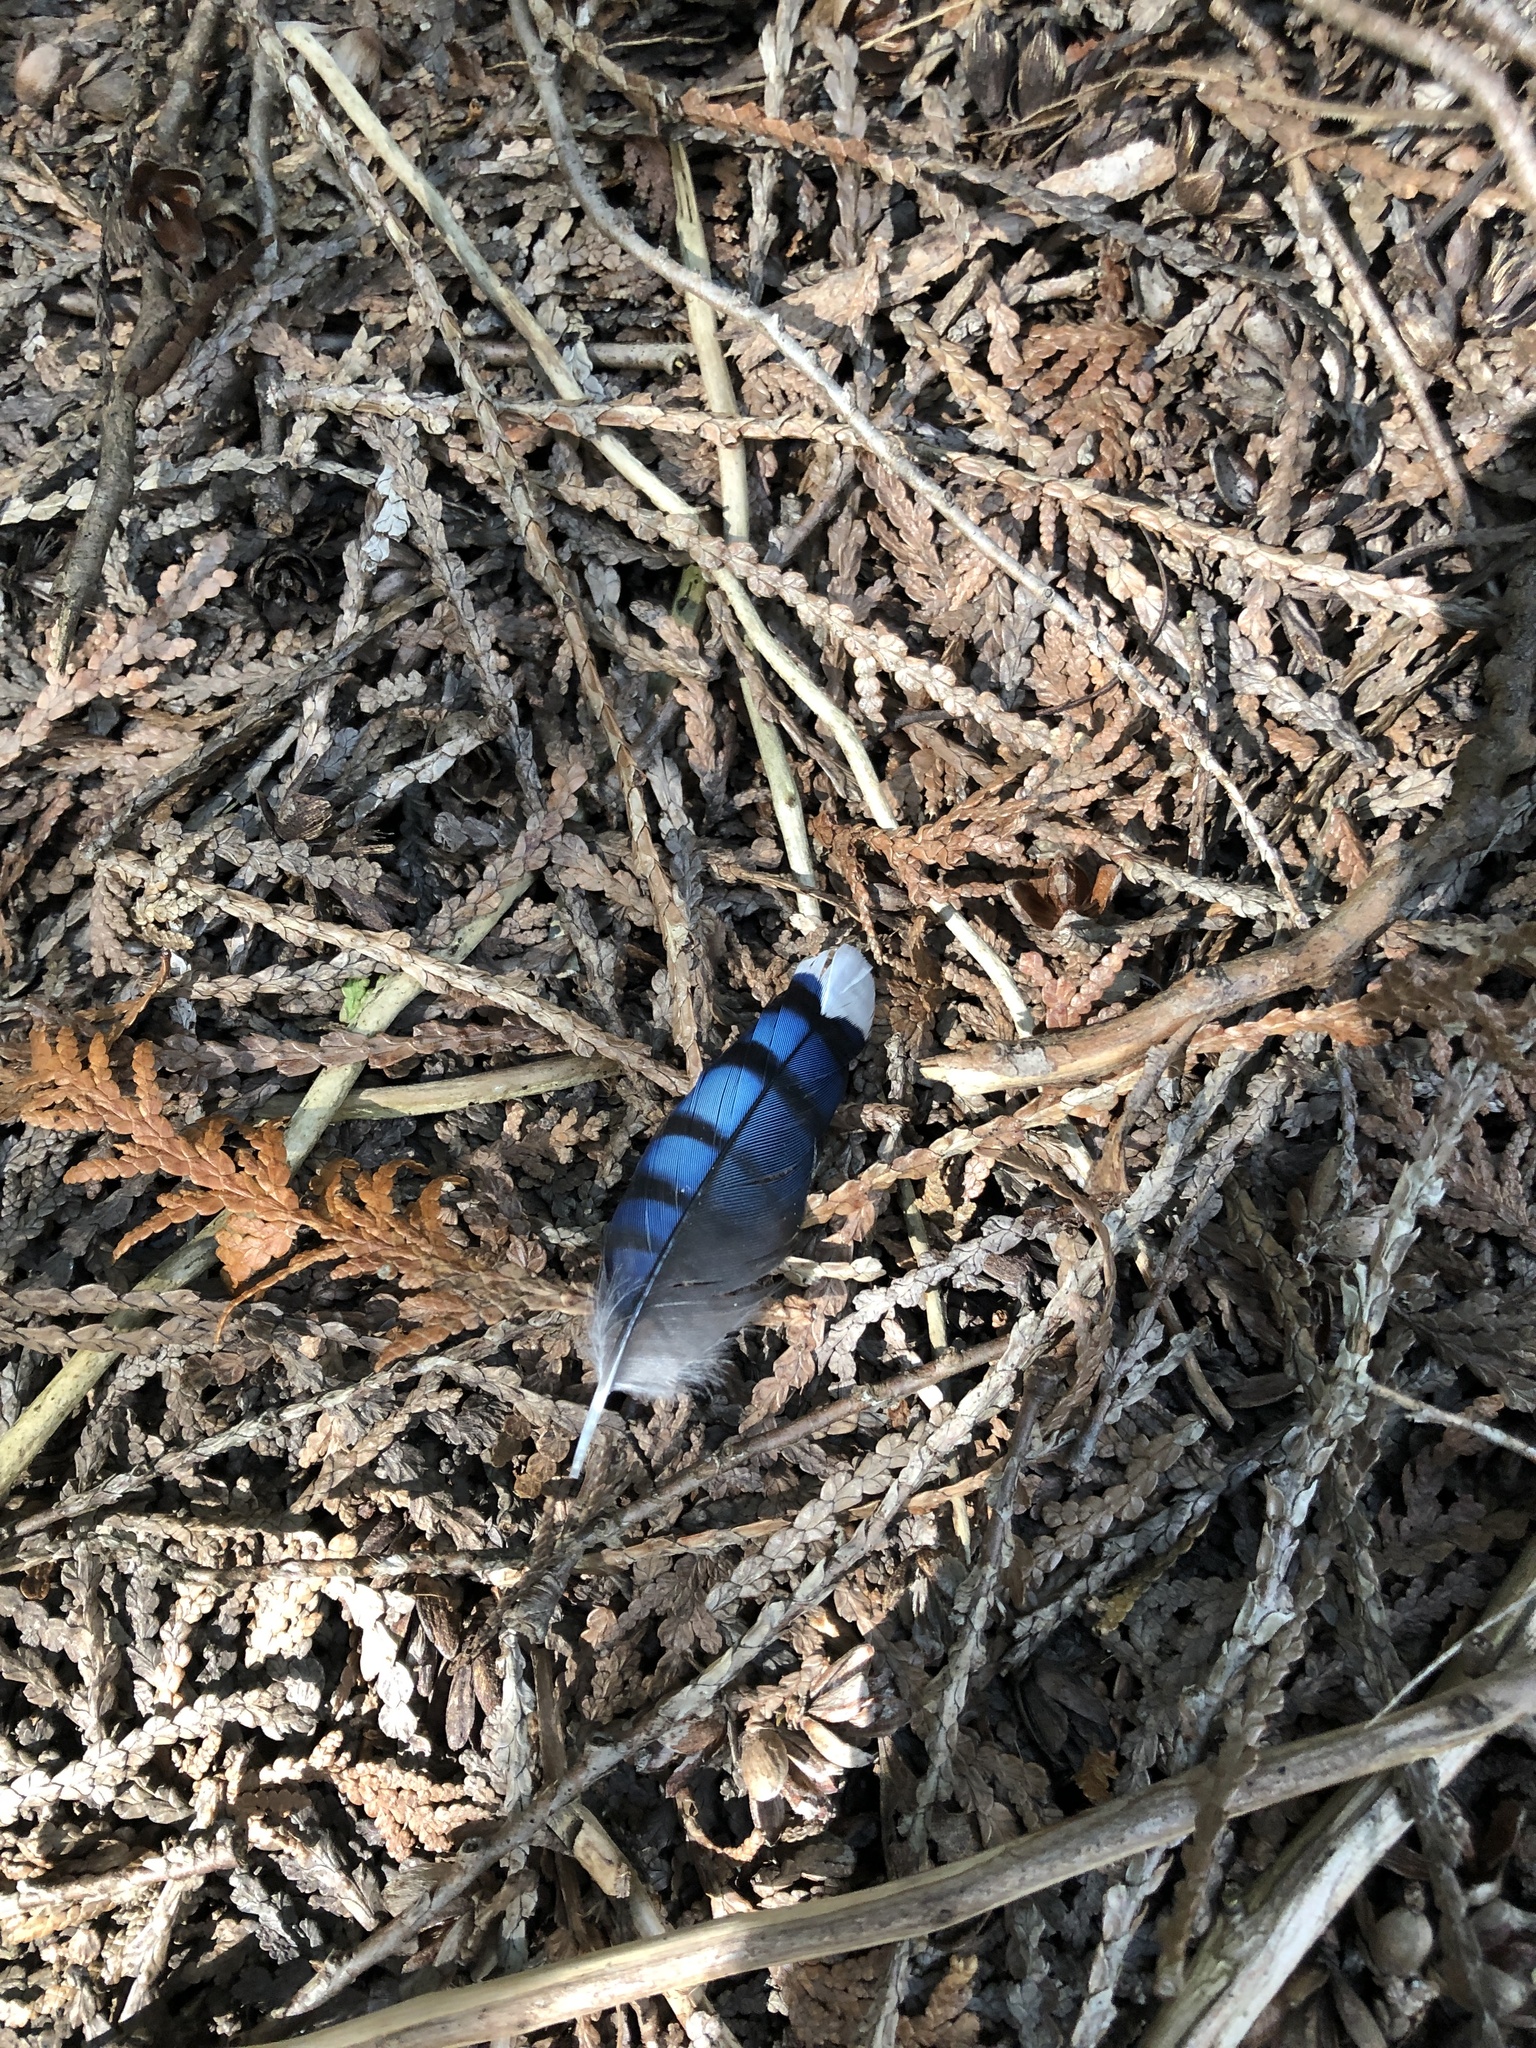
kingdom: Animalia
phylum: Chordata
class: Aves
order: Passeriformes
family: Corvidae
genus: Cyanocitta
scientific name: Cyanocitta cristata
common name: Blue jay
